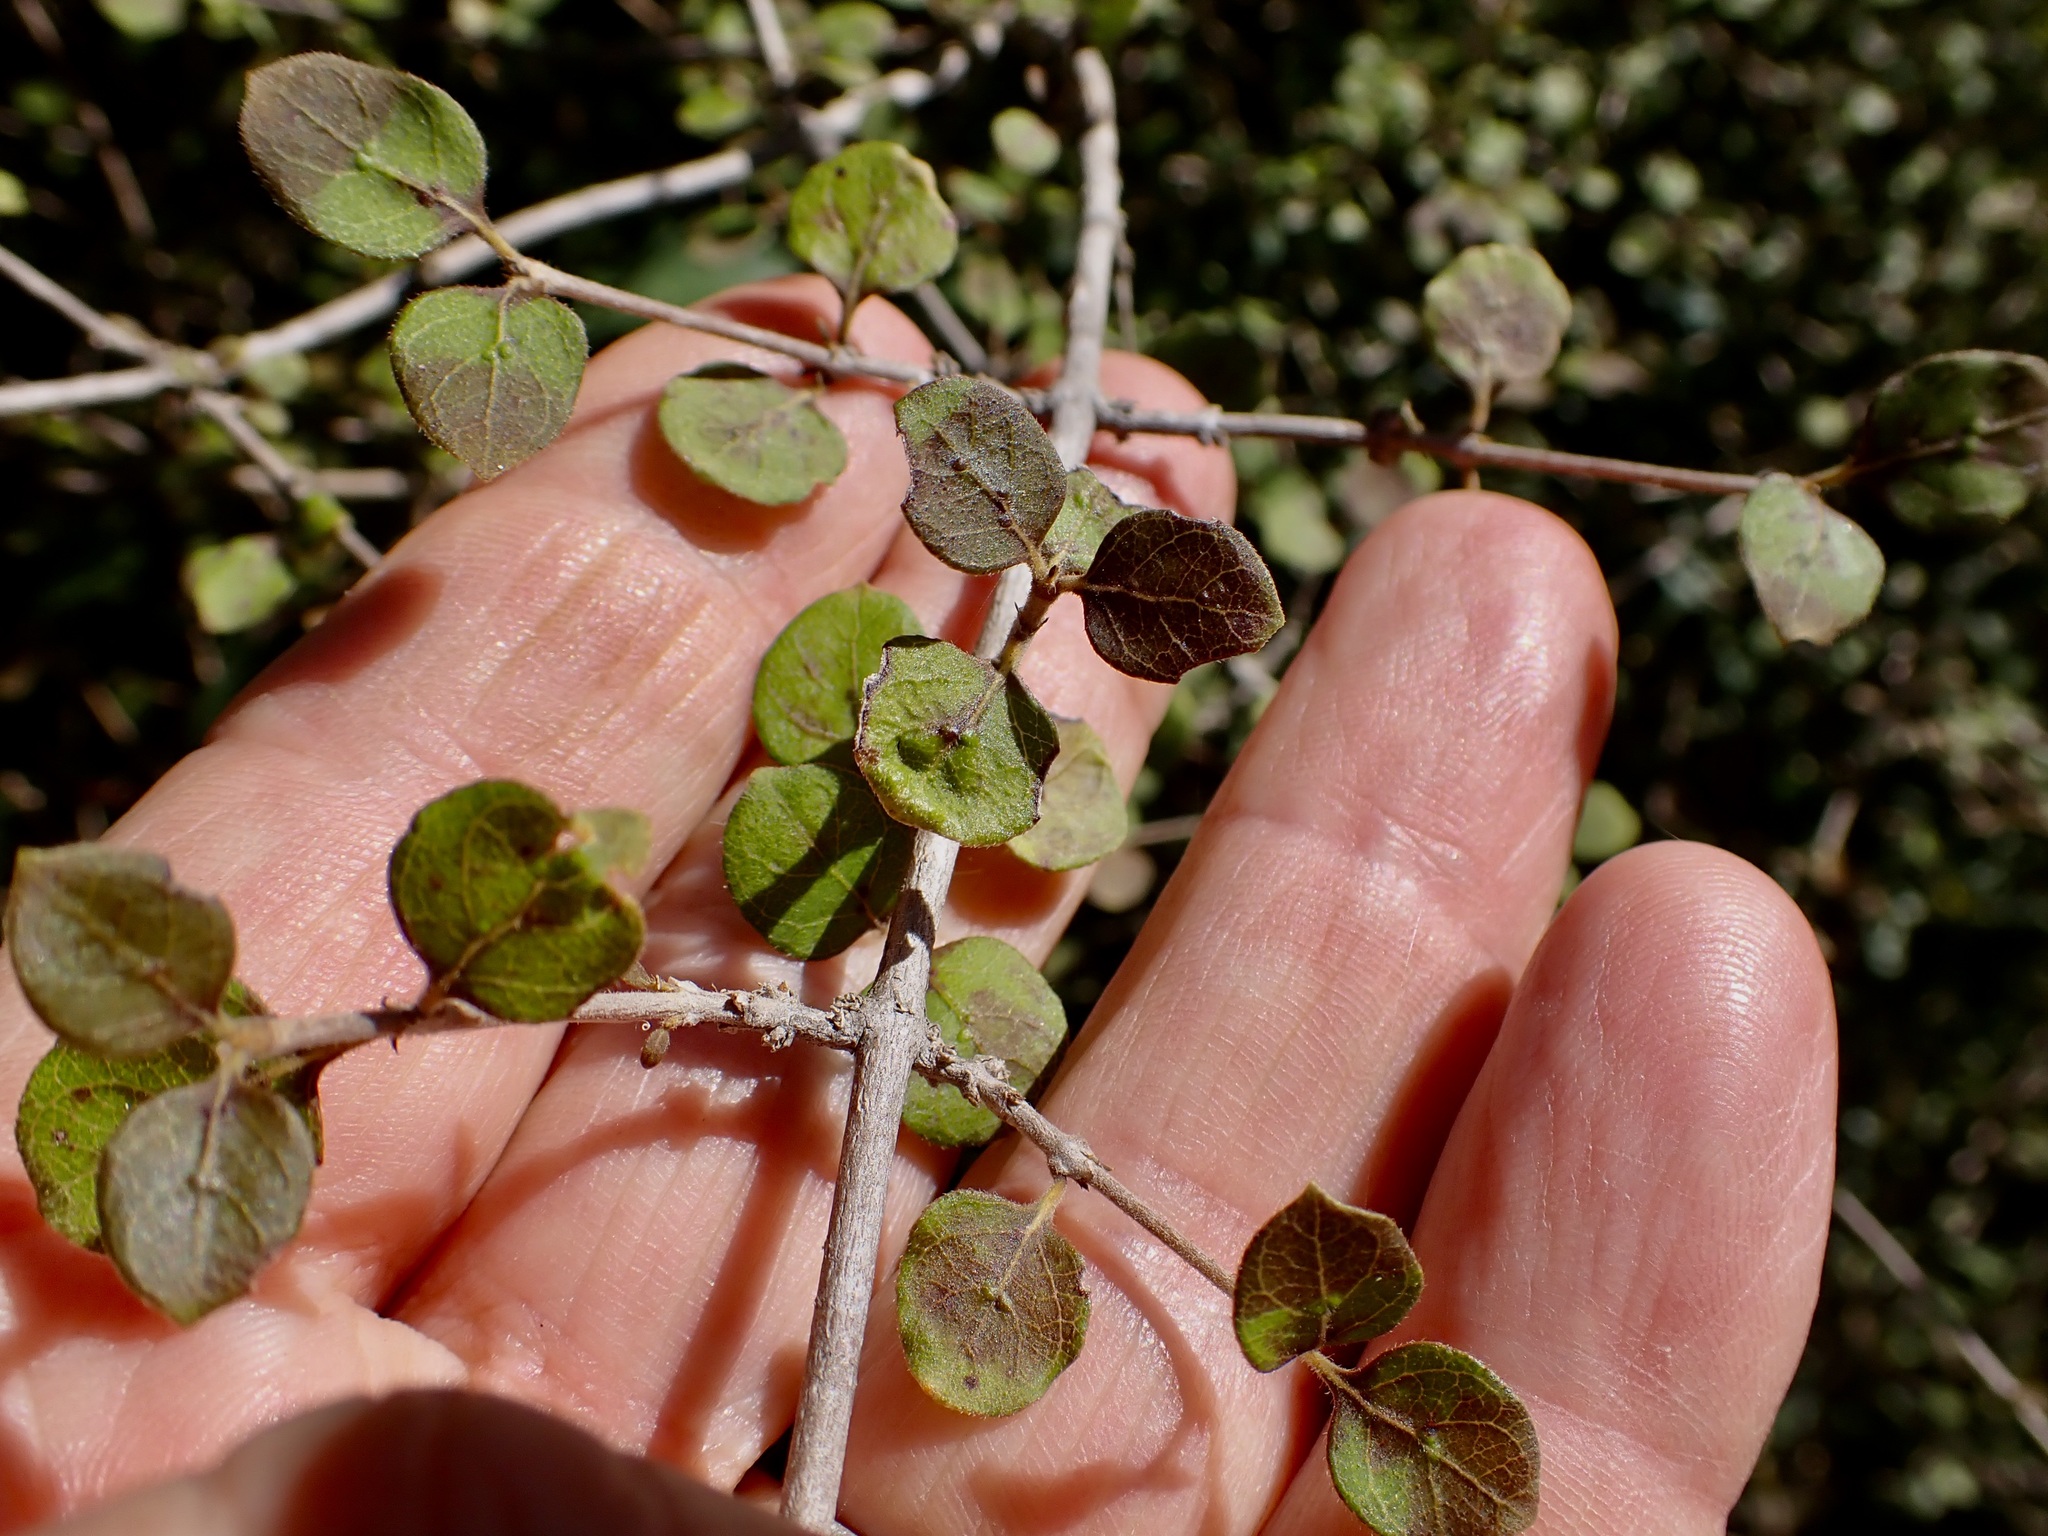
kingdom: Plantae
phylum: Tracheophyta
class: Magnoliopsida
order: Gentianales
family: Rubiaceae
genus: Coprosma
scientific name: Coprosma rotundifolia
